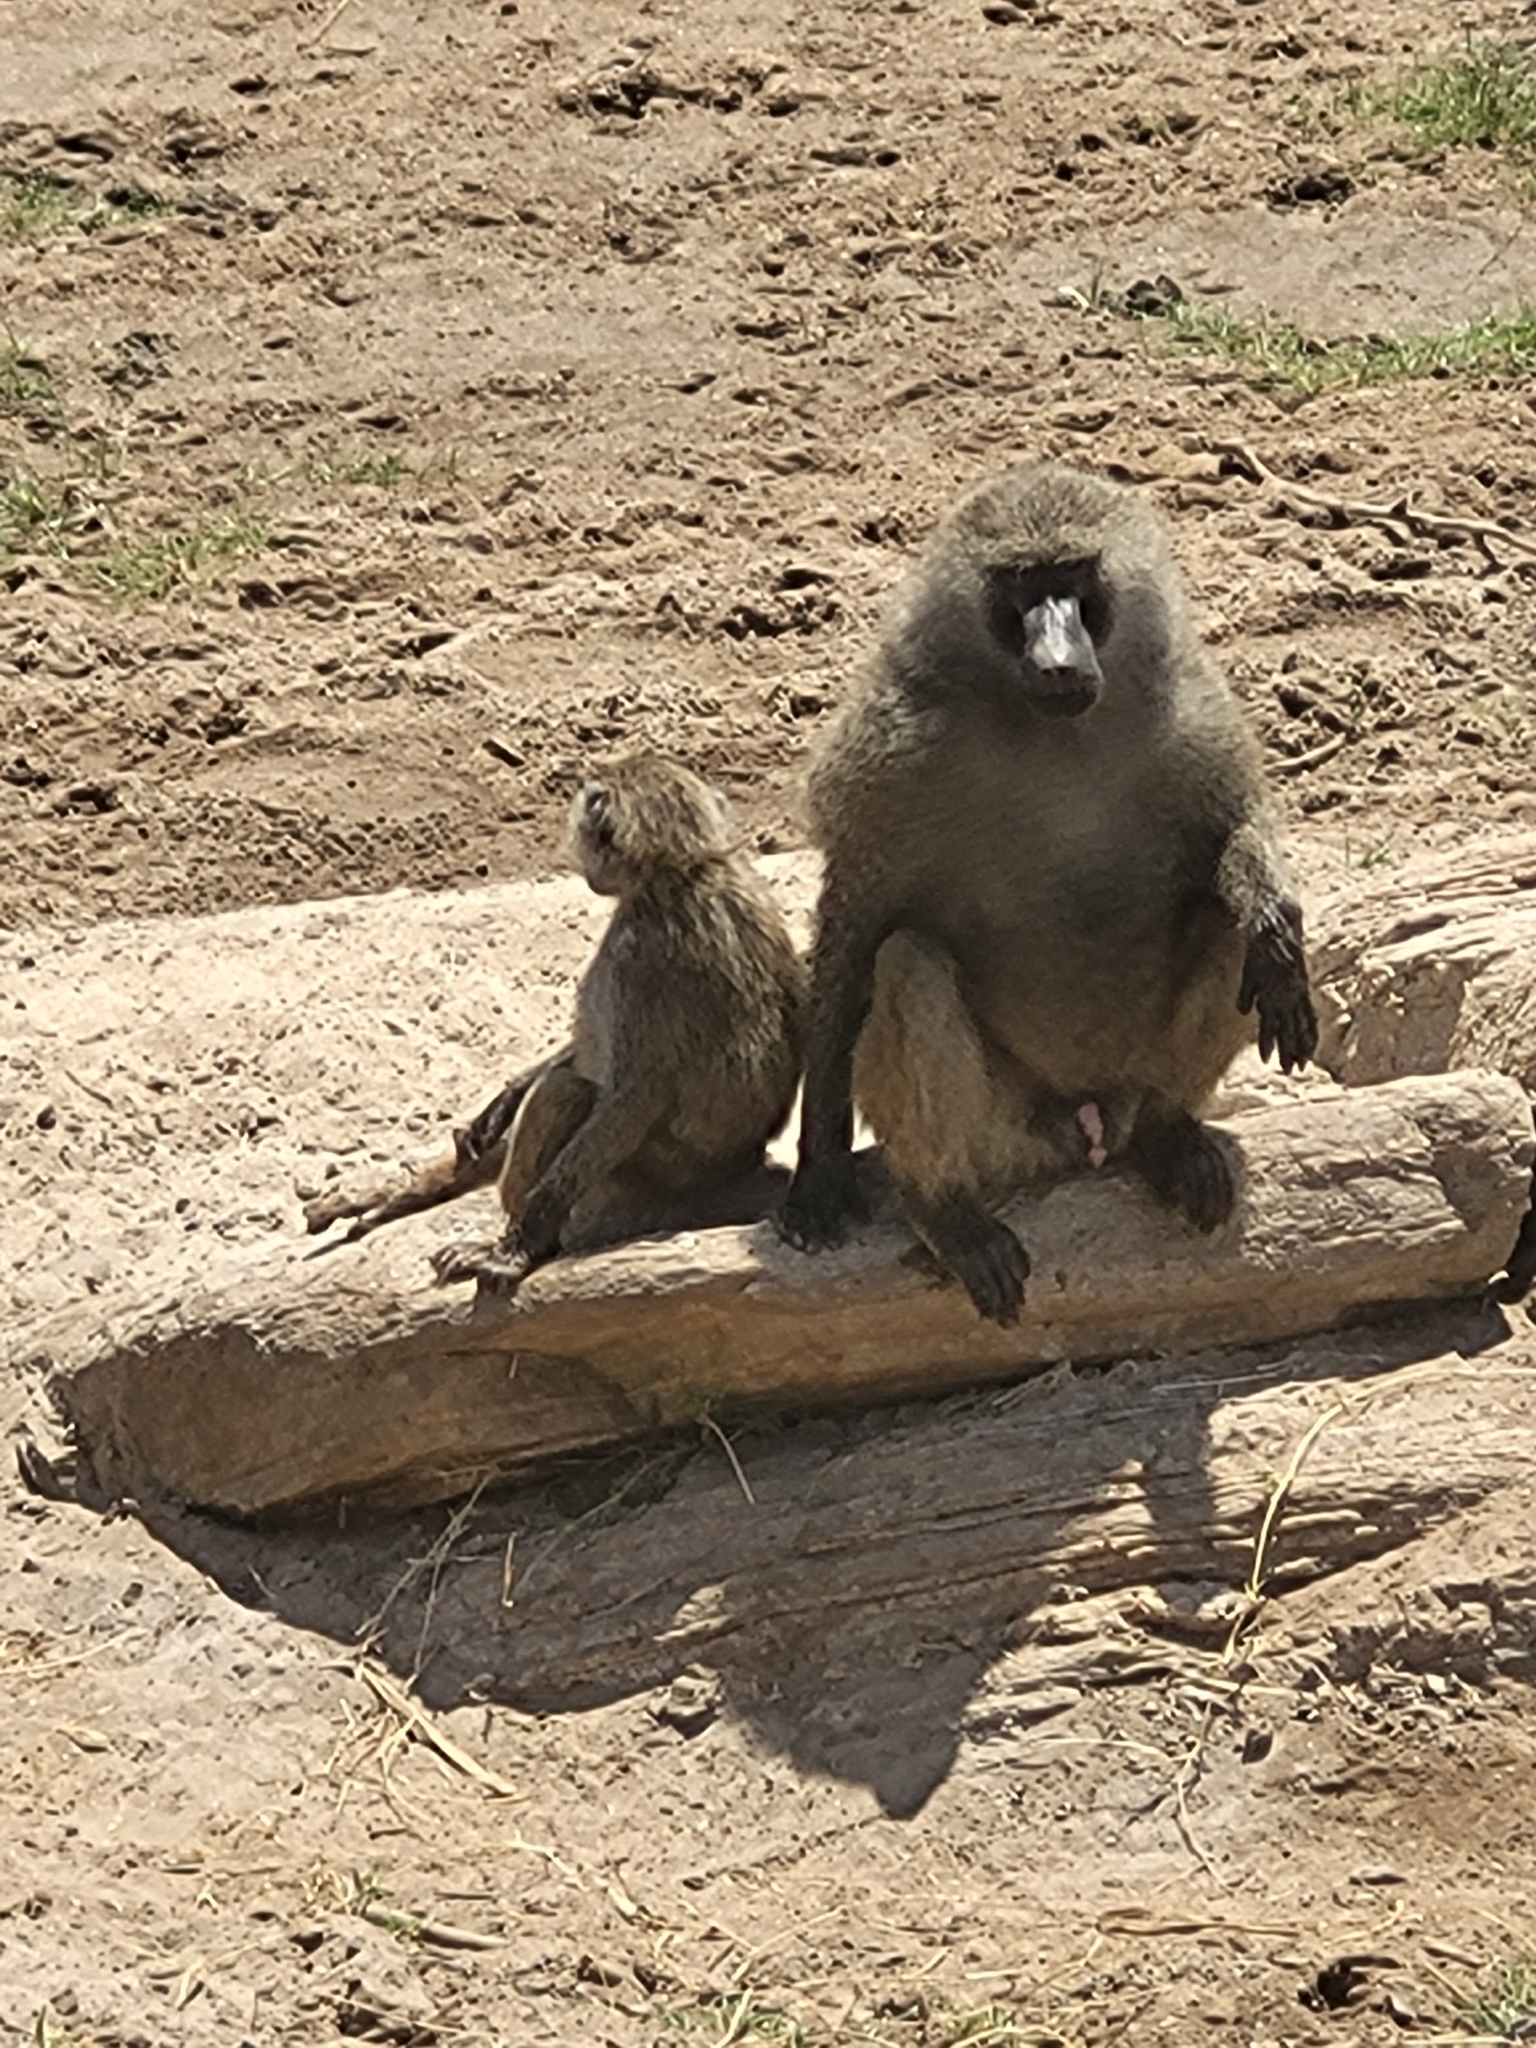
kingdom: Animalia
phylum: Chordata
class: Mammalia
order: Primates
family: Cercopithecidae
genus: Papio
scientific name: Papio anubis
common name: Olive baboon
